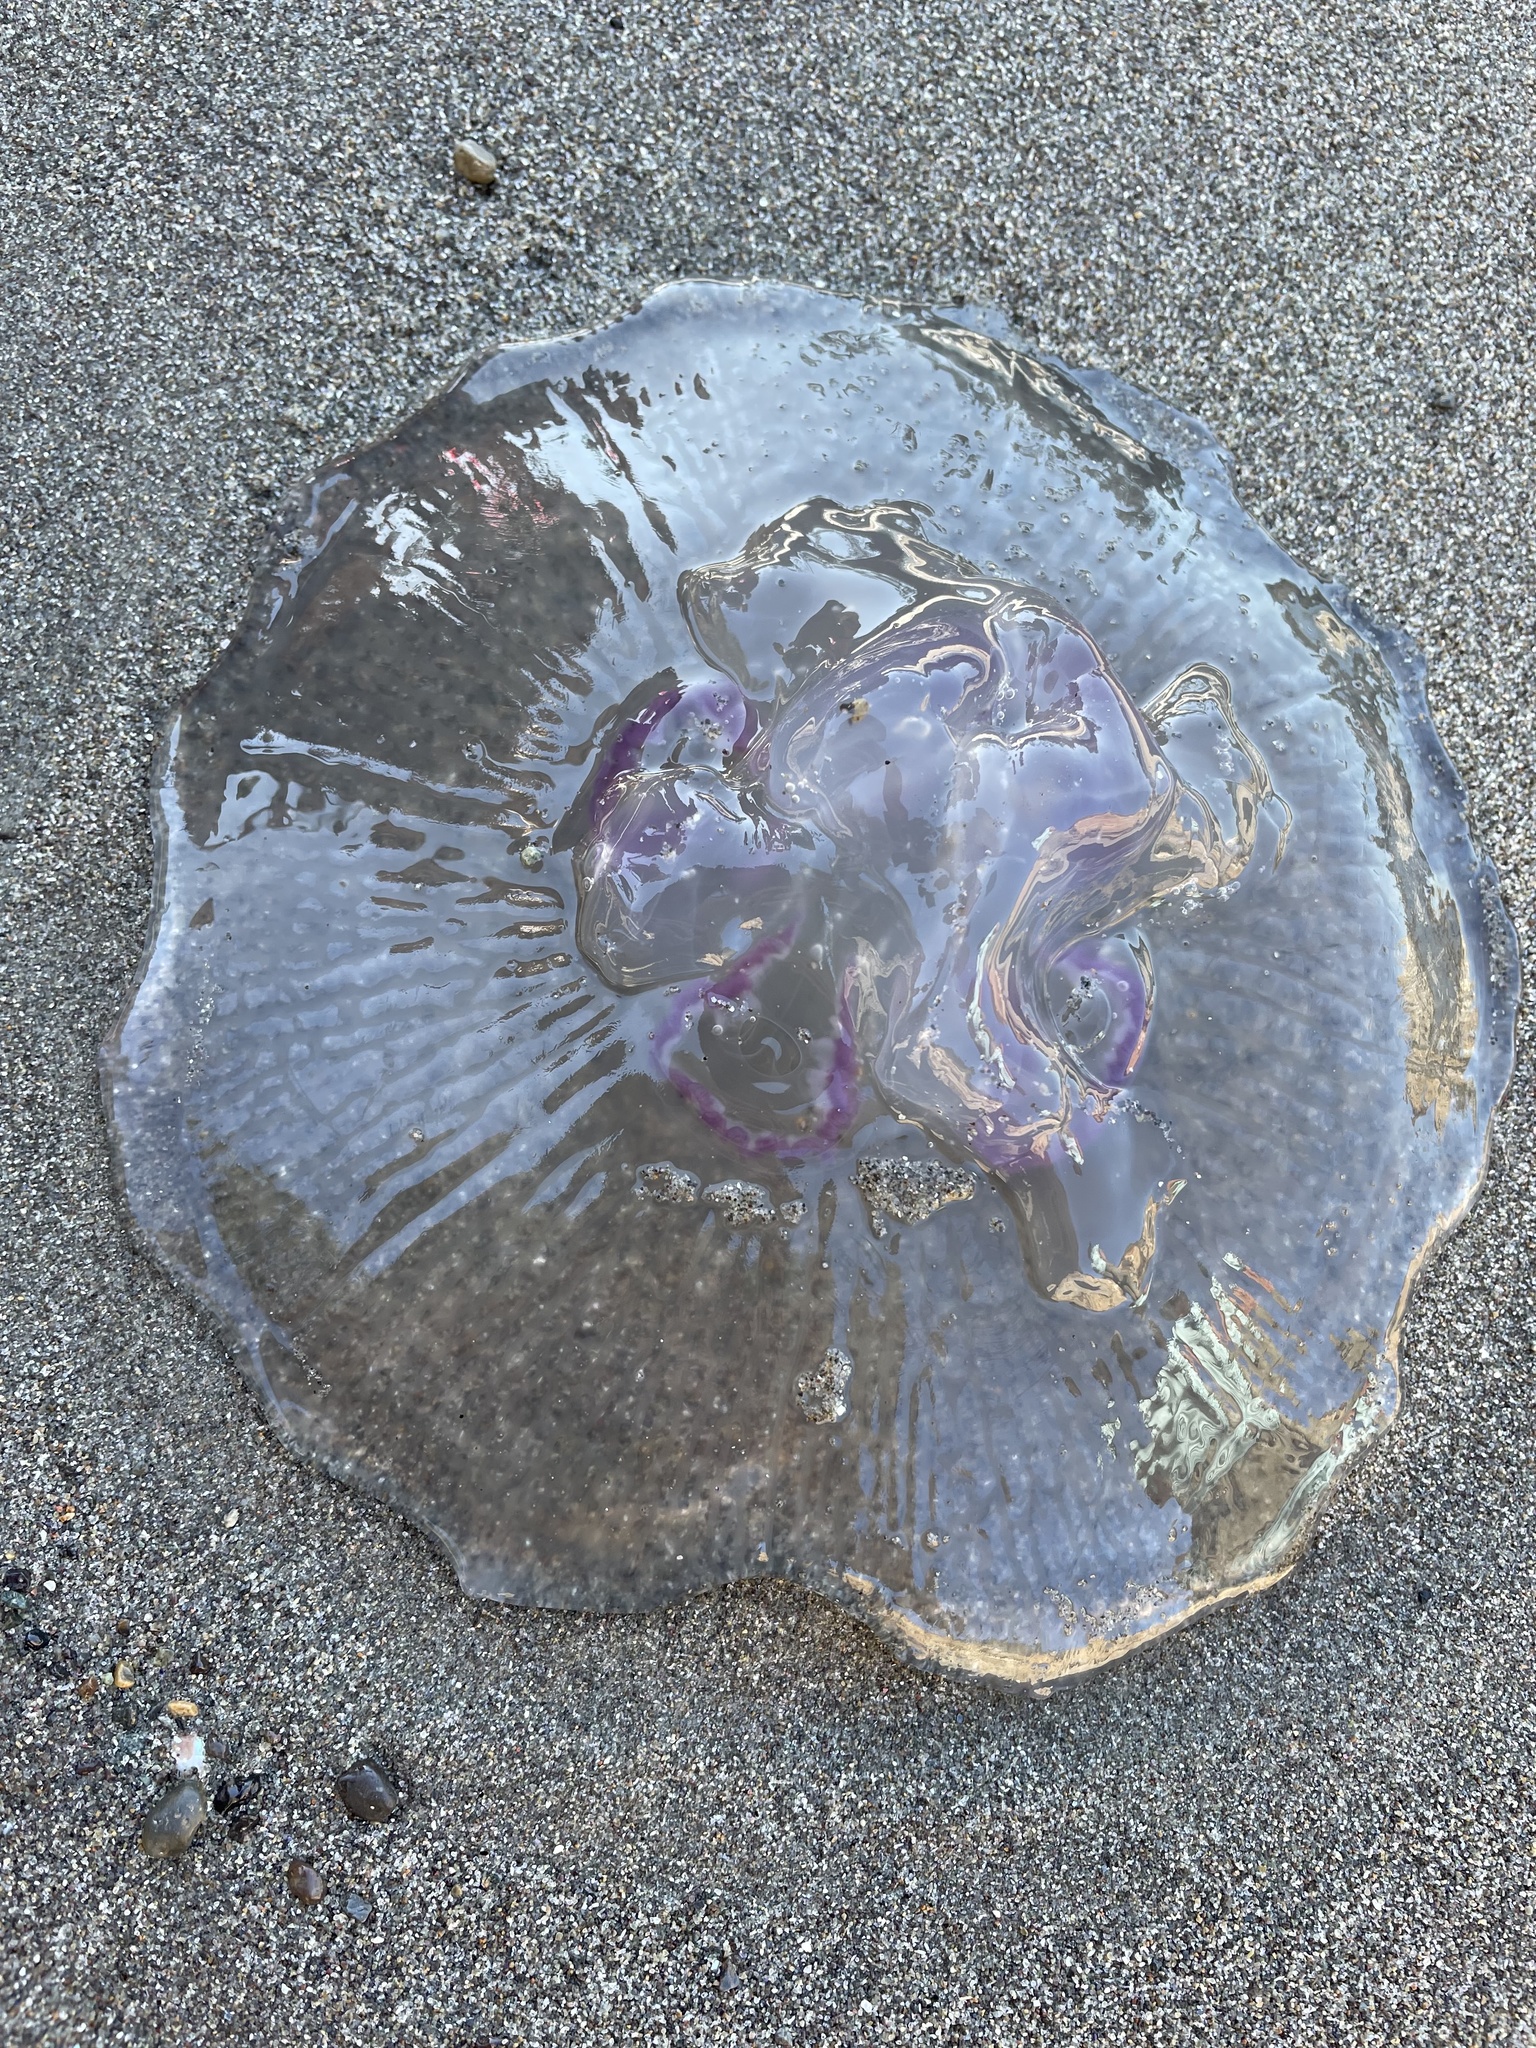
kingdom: Animalia
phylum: Cnidaria
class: Scyphozoa
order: Semaeostomeae
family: Ulmaridae
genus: Aurelia
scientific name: Aurelia labiata
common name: Pacific moon jelly
